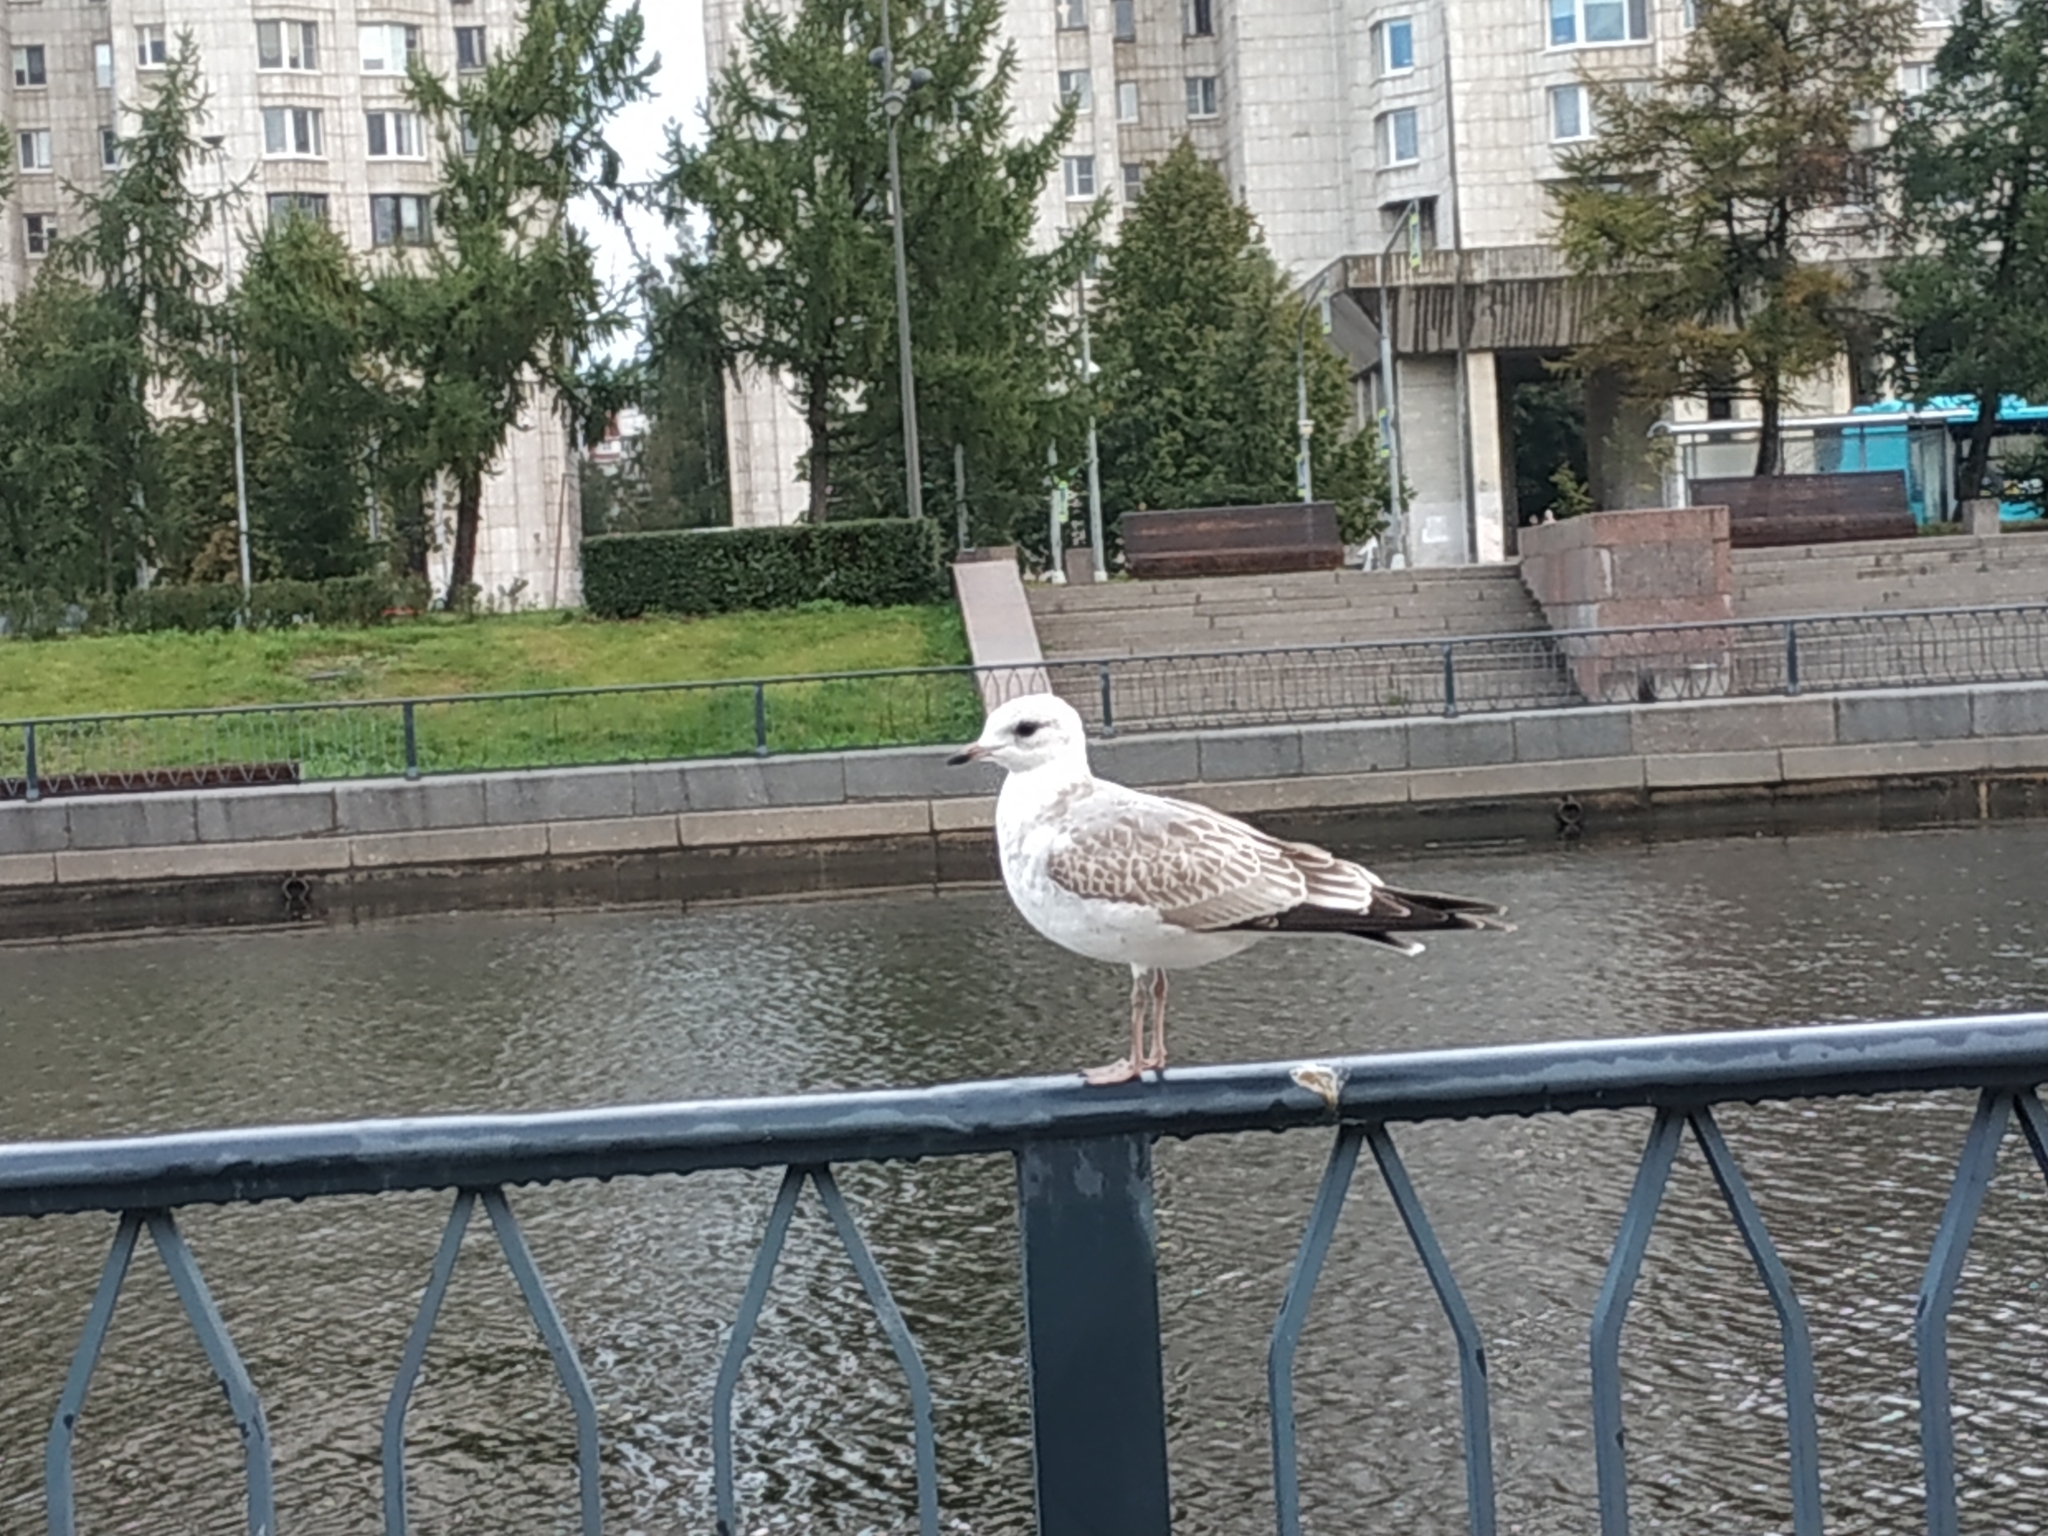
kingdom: Animalia
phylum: Chordata
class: Aves
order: Charadriiformes
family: Laridae
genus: Larus
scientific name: Larus canus
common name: Mew gull
